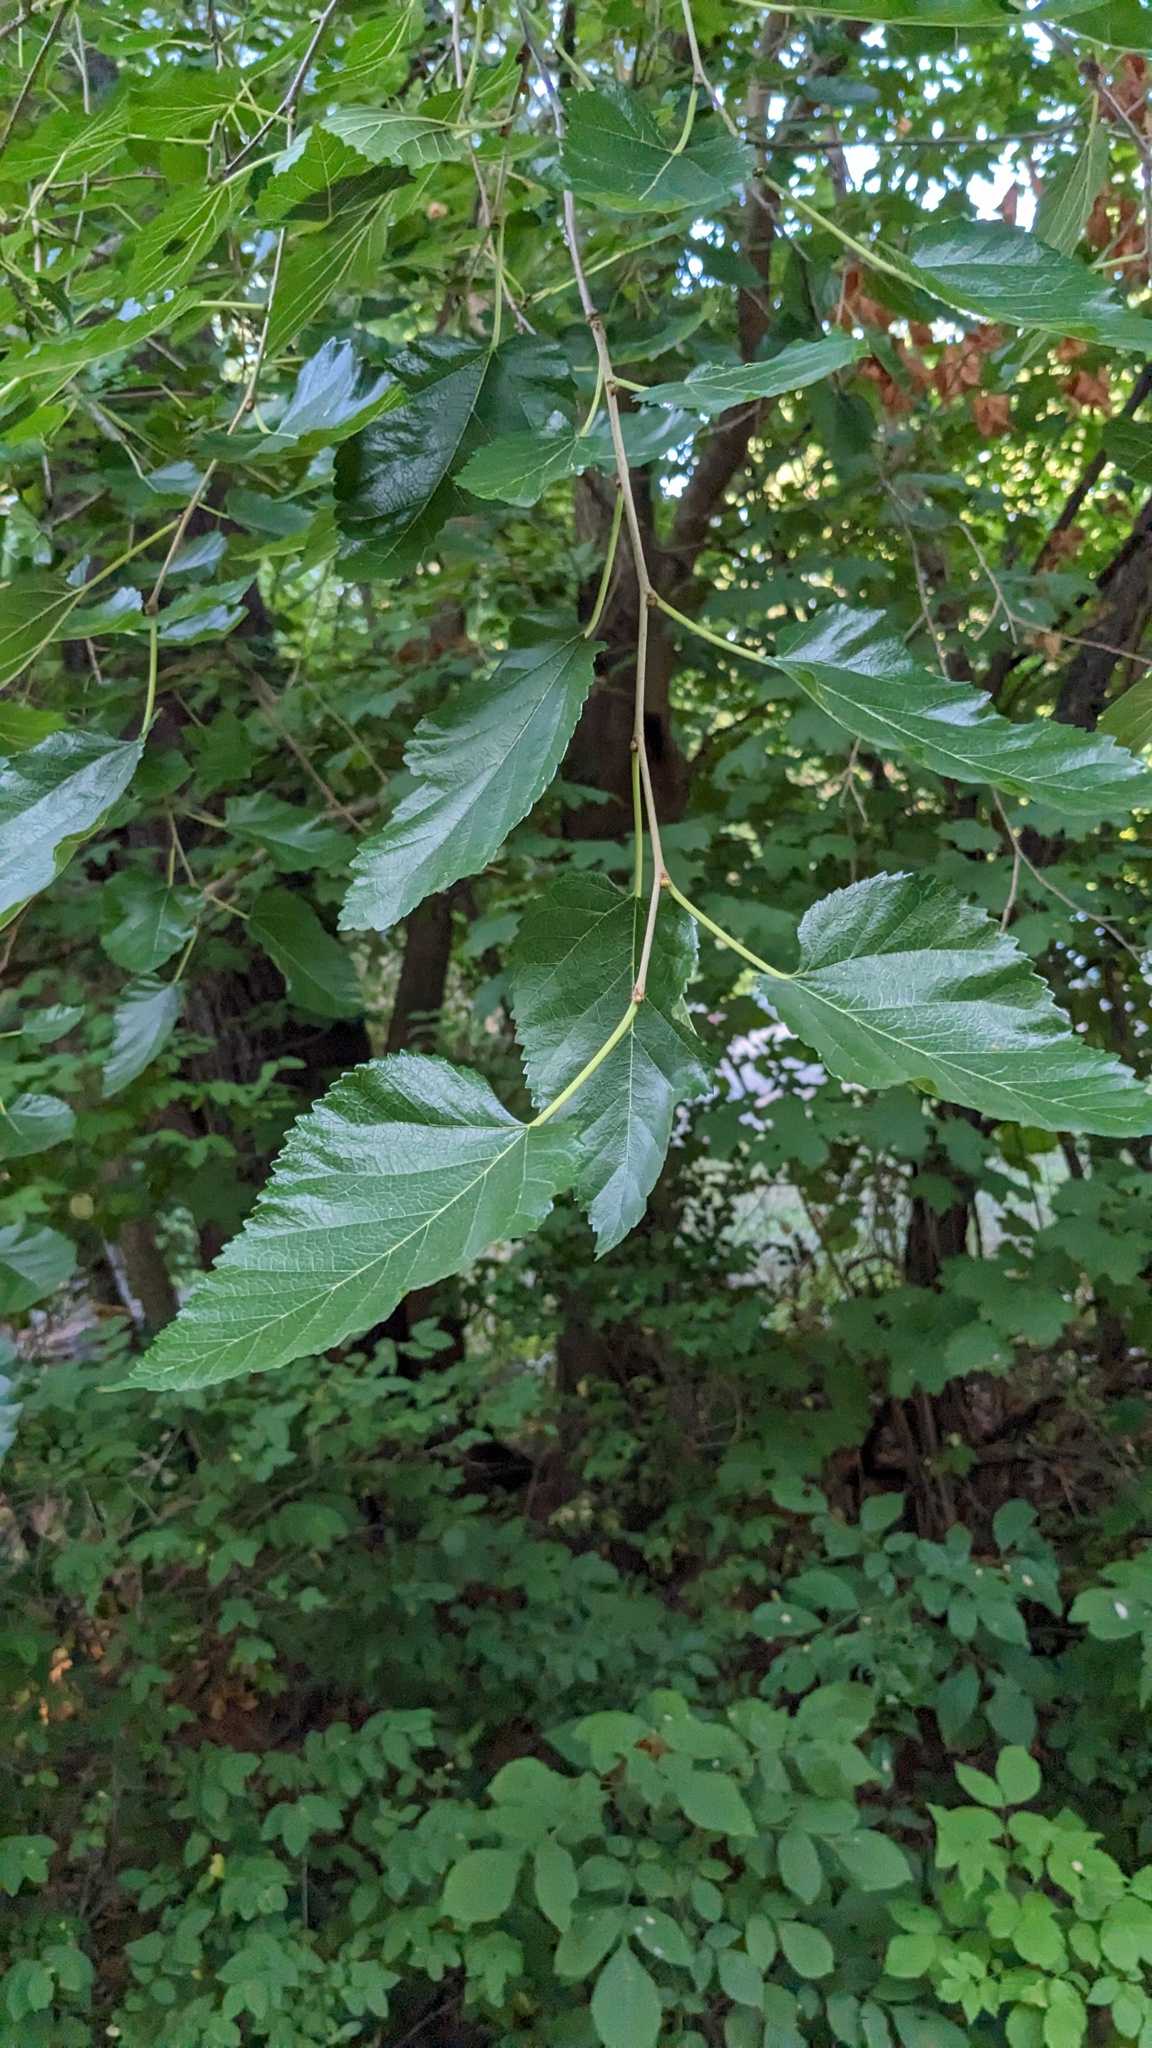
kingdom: Plantae
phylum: Tracheophyta
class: Magnoliopsida
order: Rosales
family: Moraceae
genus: Morus
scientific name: Morus alba
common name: White mulberry
